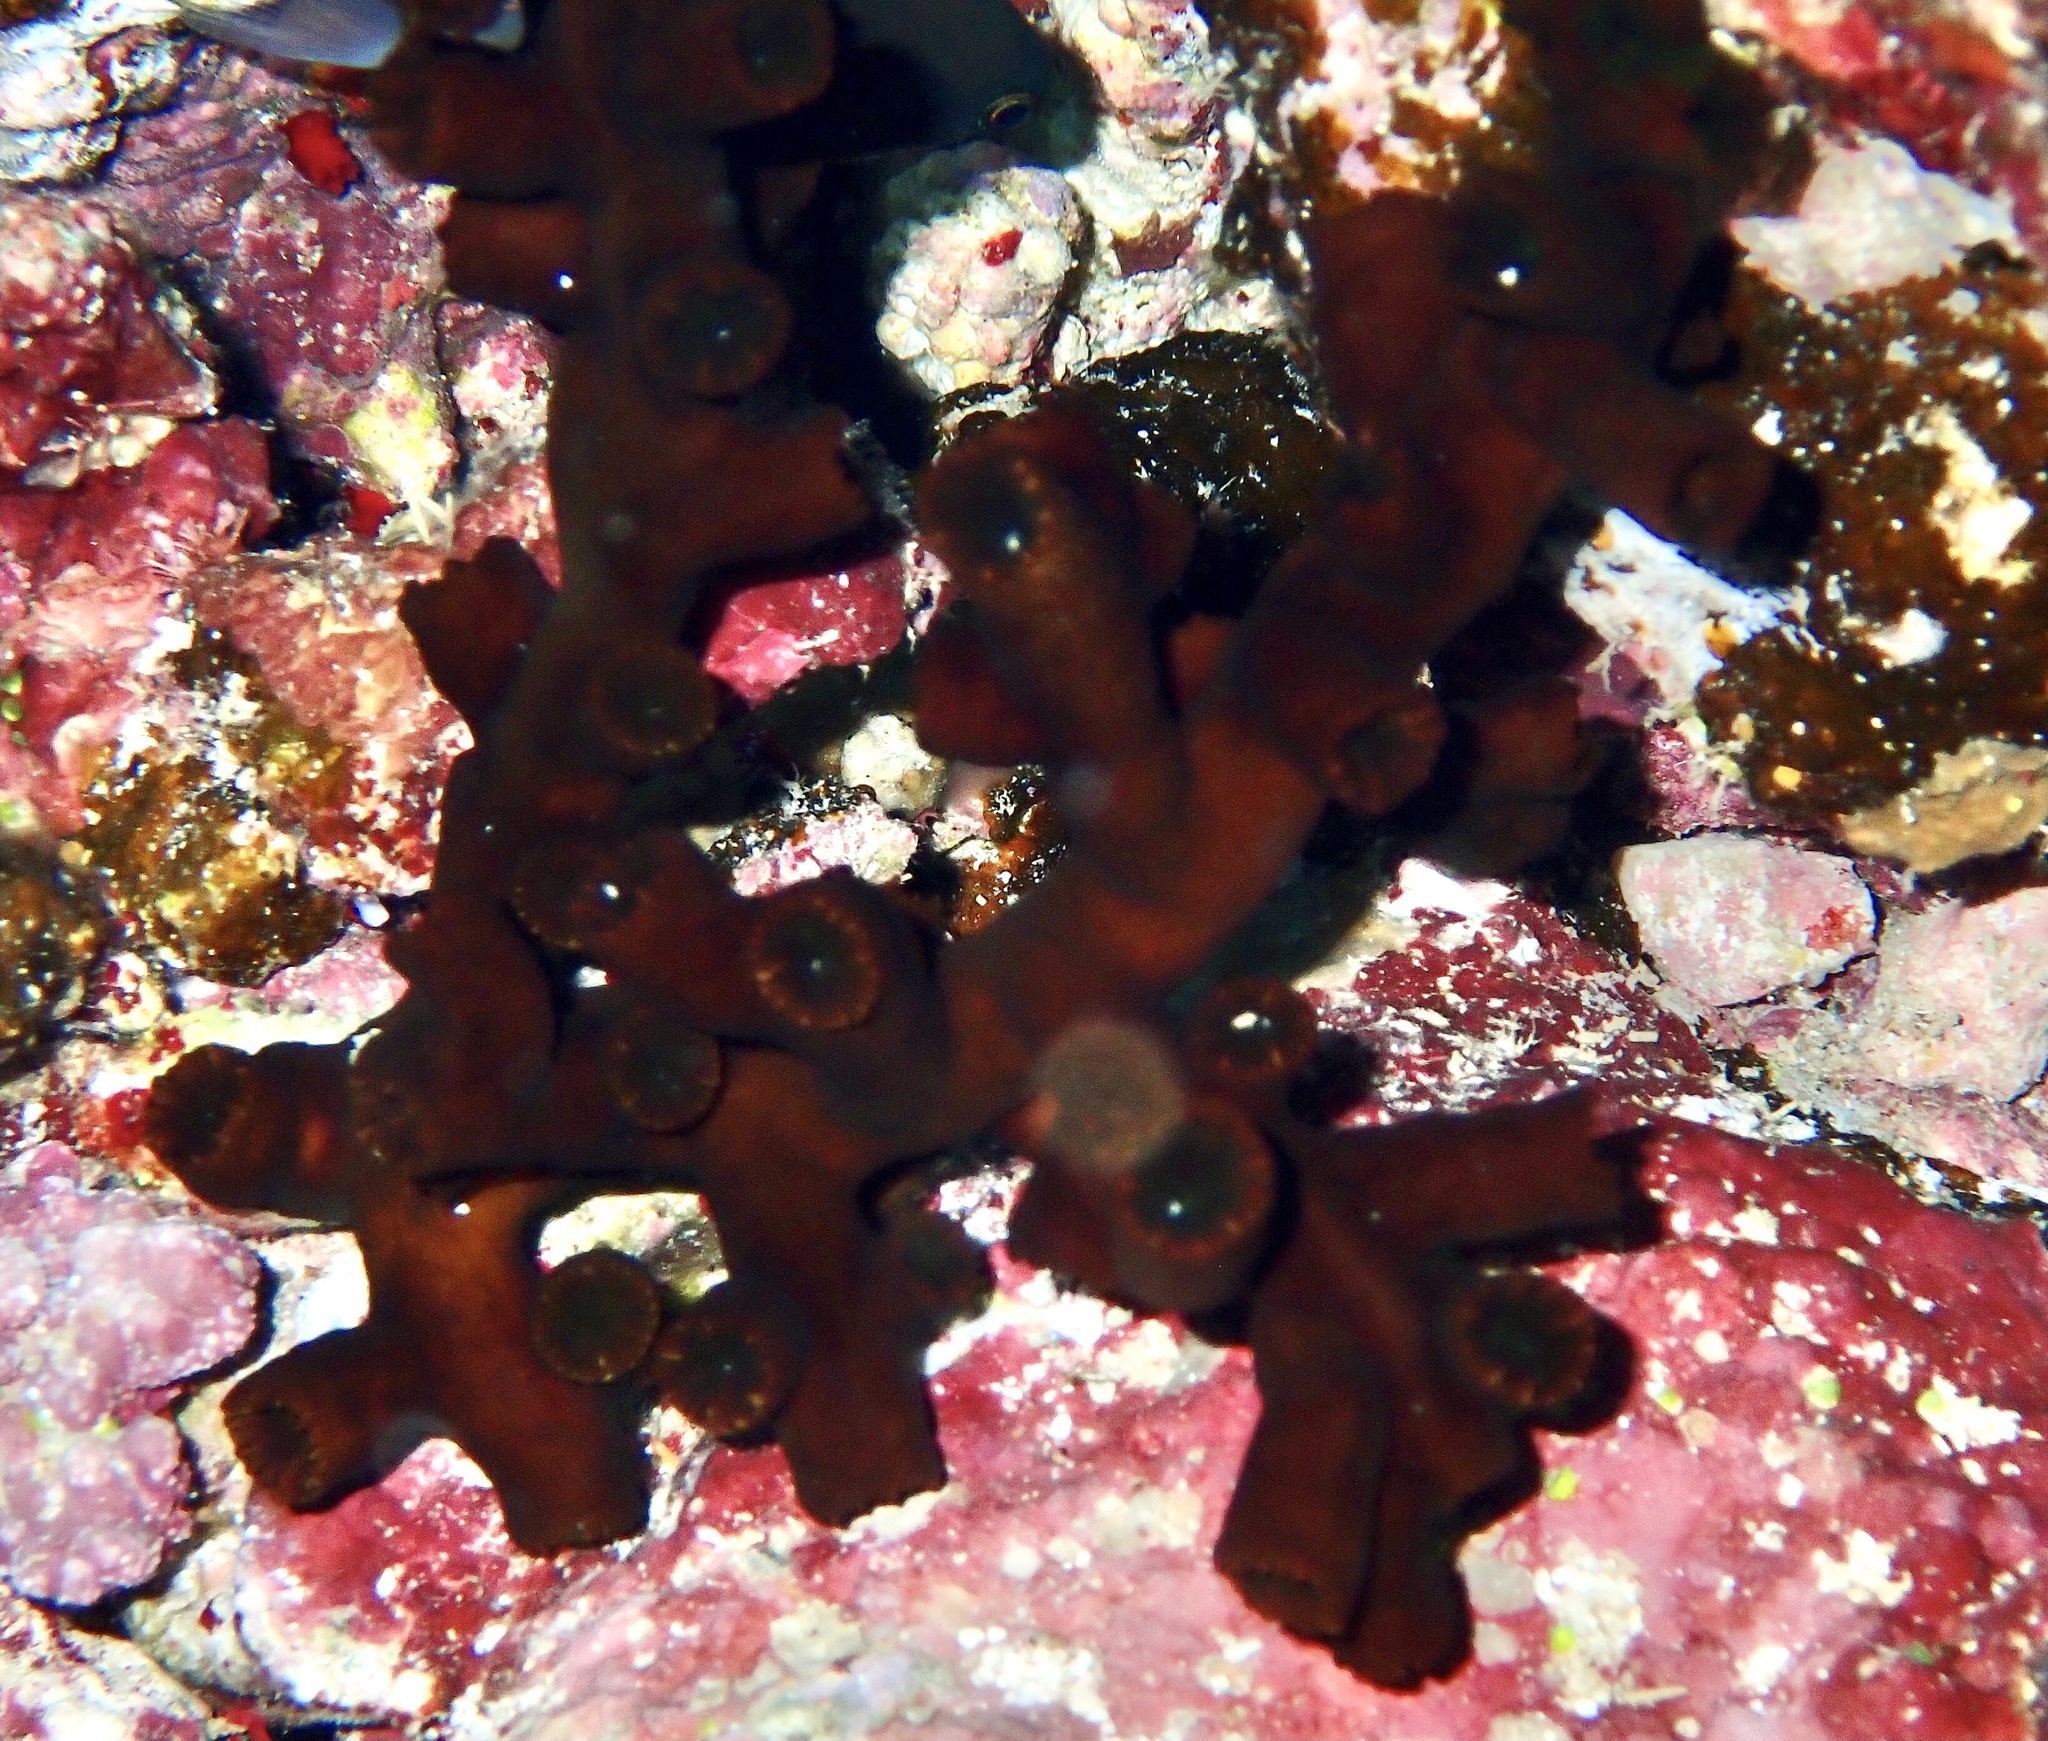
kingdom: Animalia
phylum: Cnidaria
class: Anthozoa
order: Scleractinia
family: Dendrophylliidae
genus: Tubastraea
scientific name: Tubastraea micranthus
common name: Black sun coral
